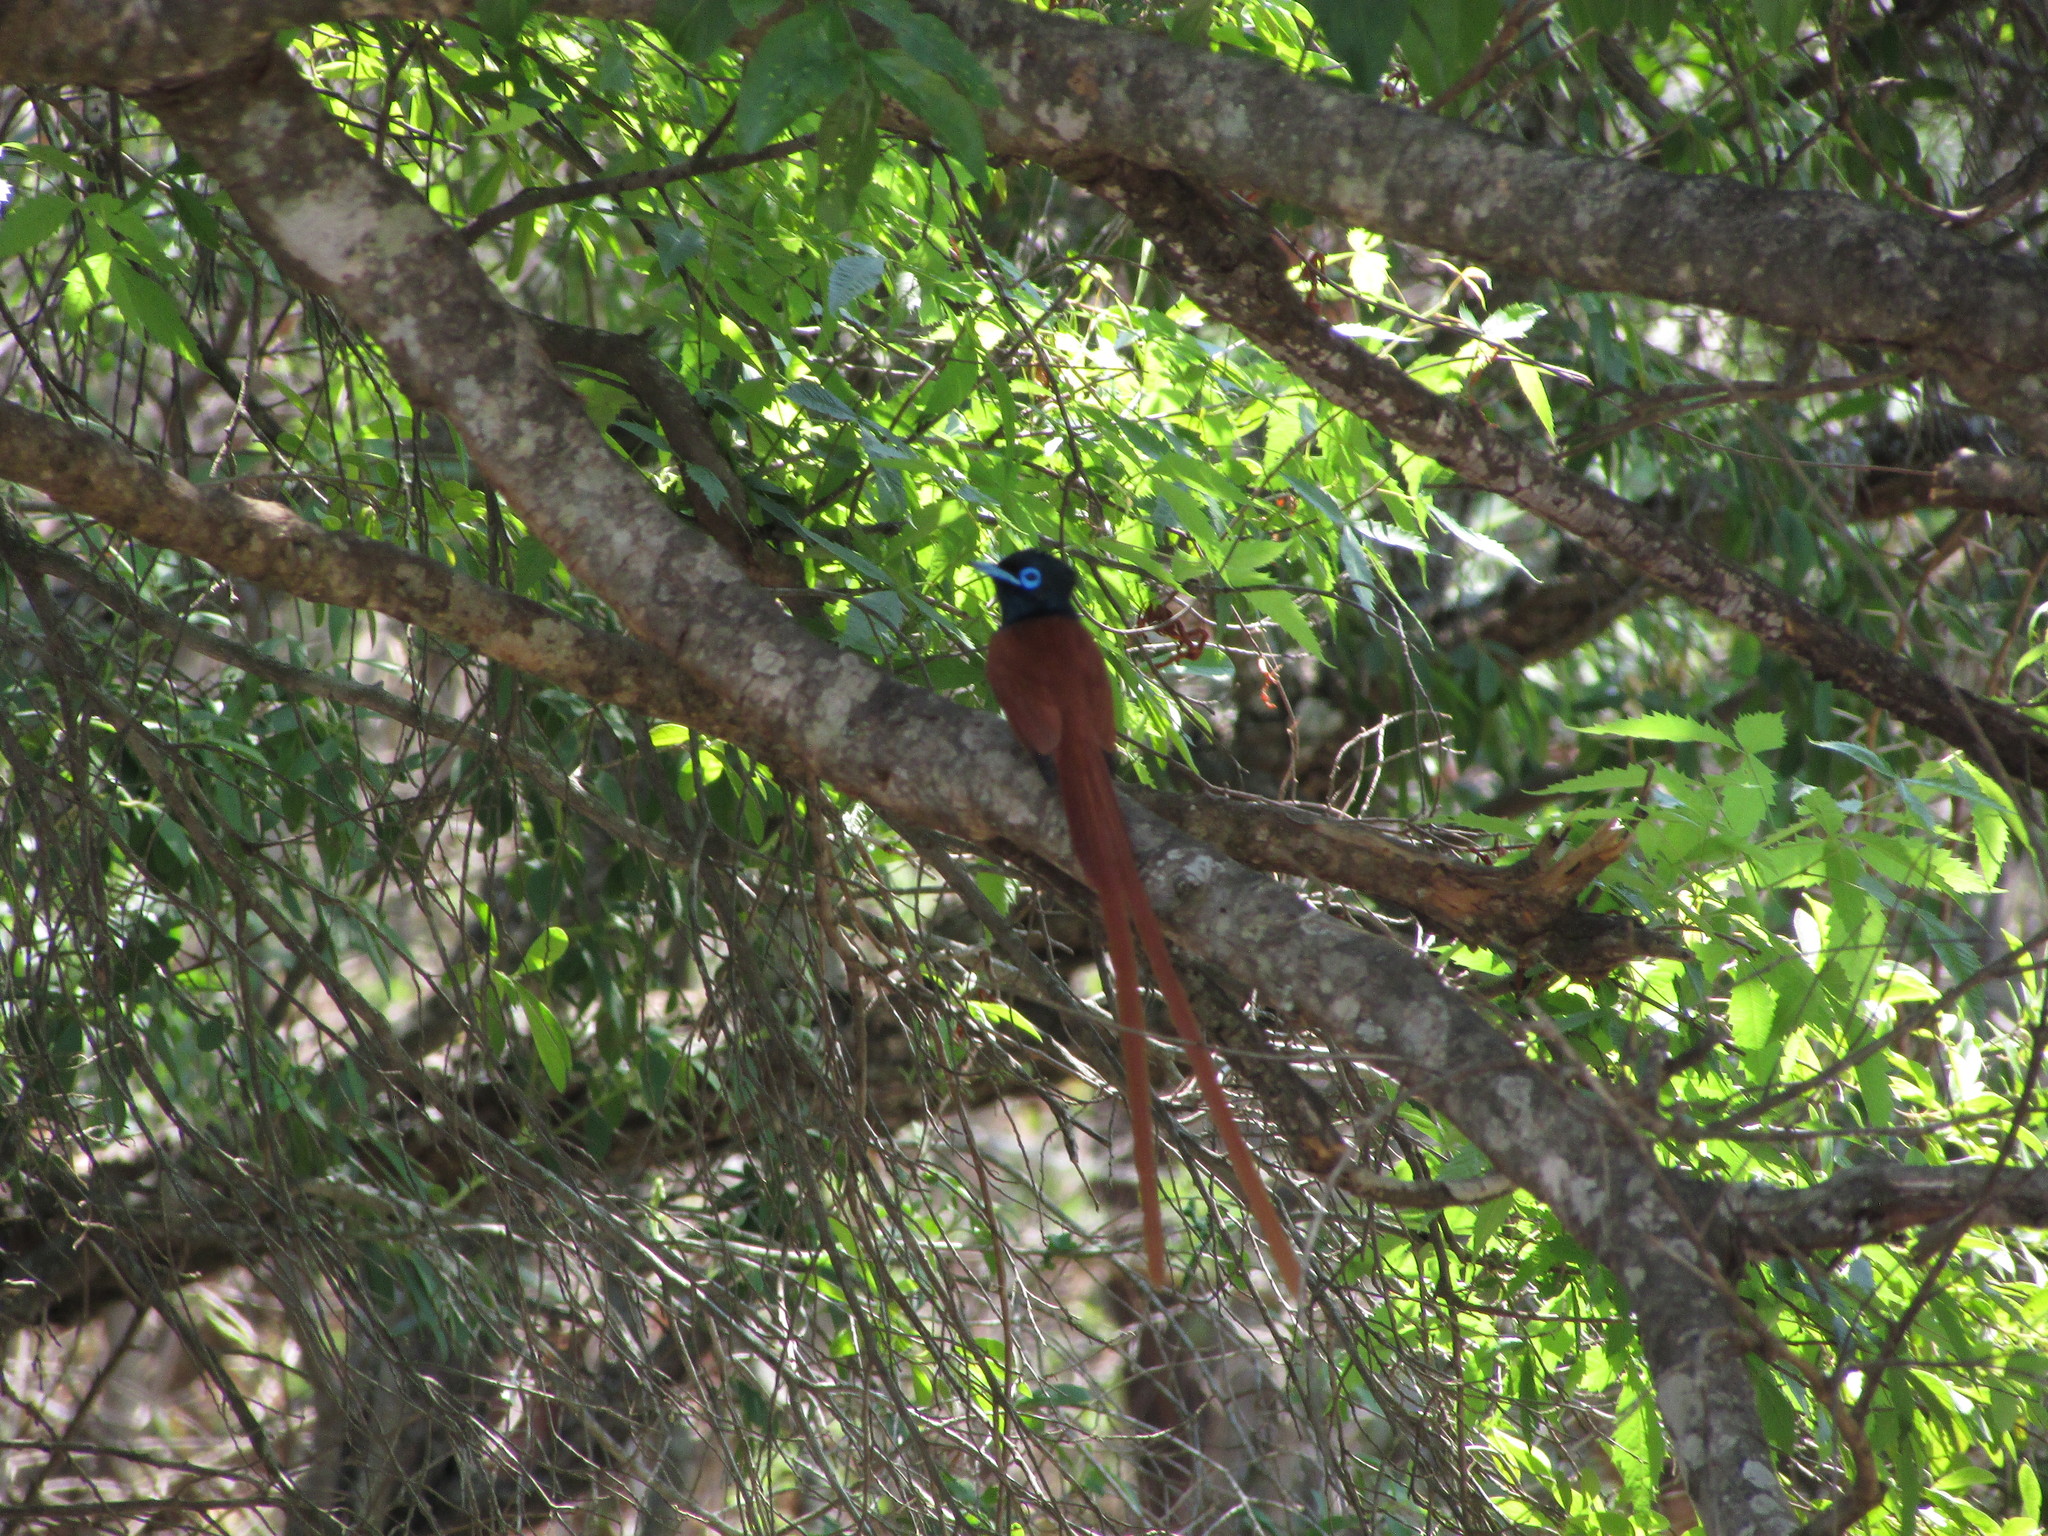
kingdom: Animalia
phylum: Chordata
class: Aves
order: Passeriformes
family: Monarchidae
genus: Terpsiphone
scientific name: Terpsiphone viridis
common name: African paradise flycatcher
